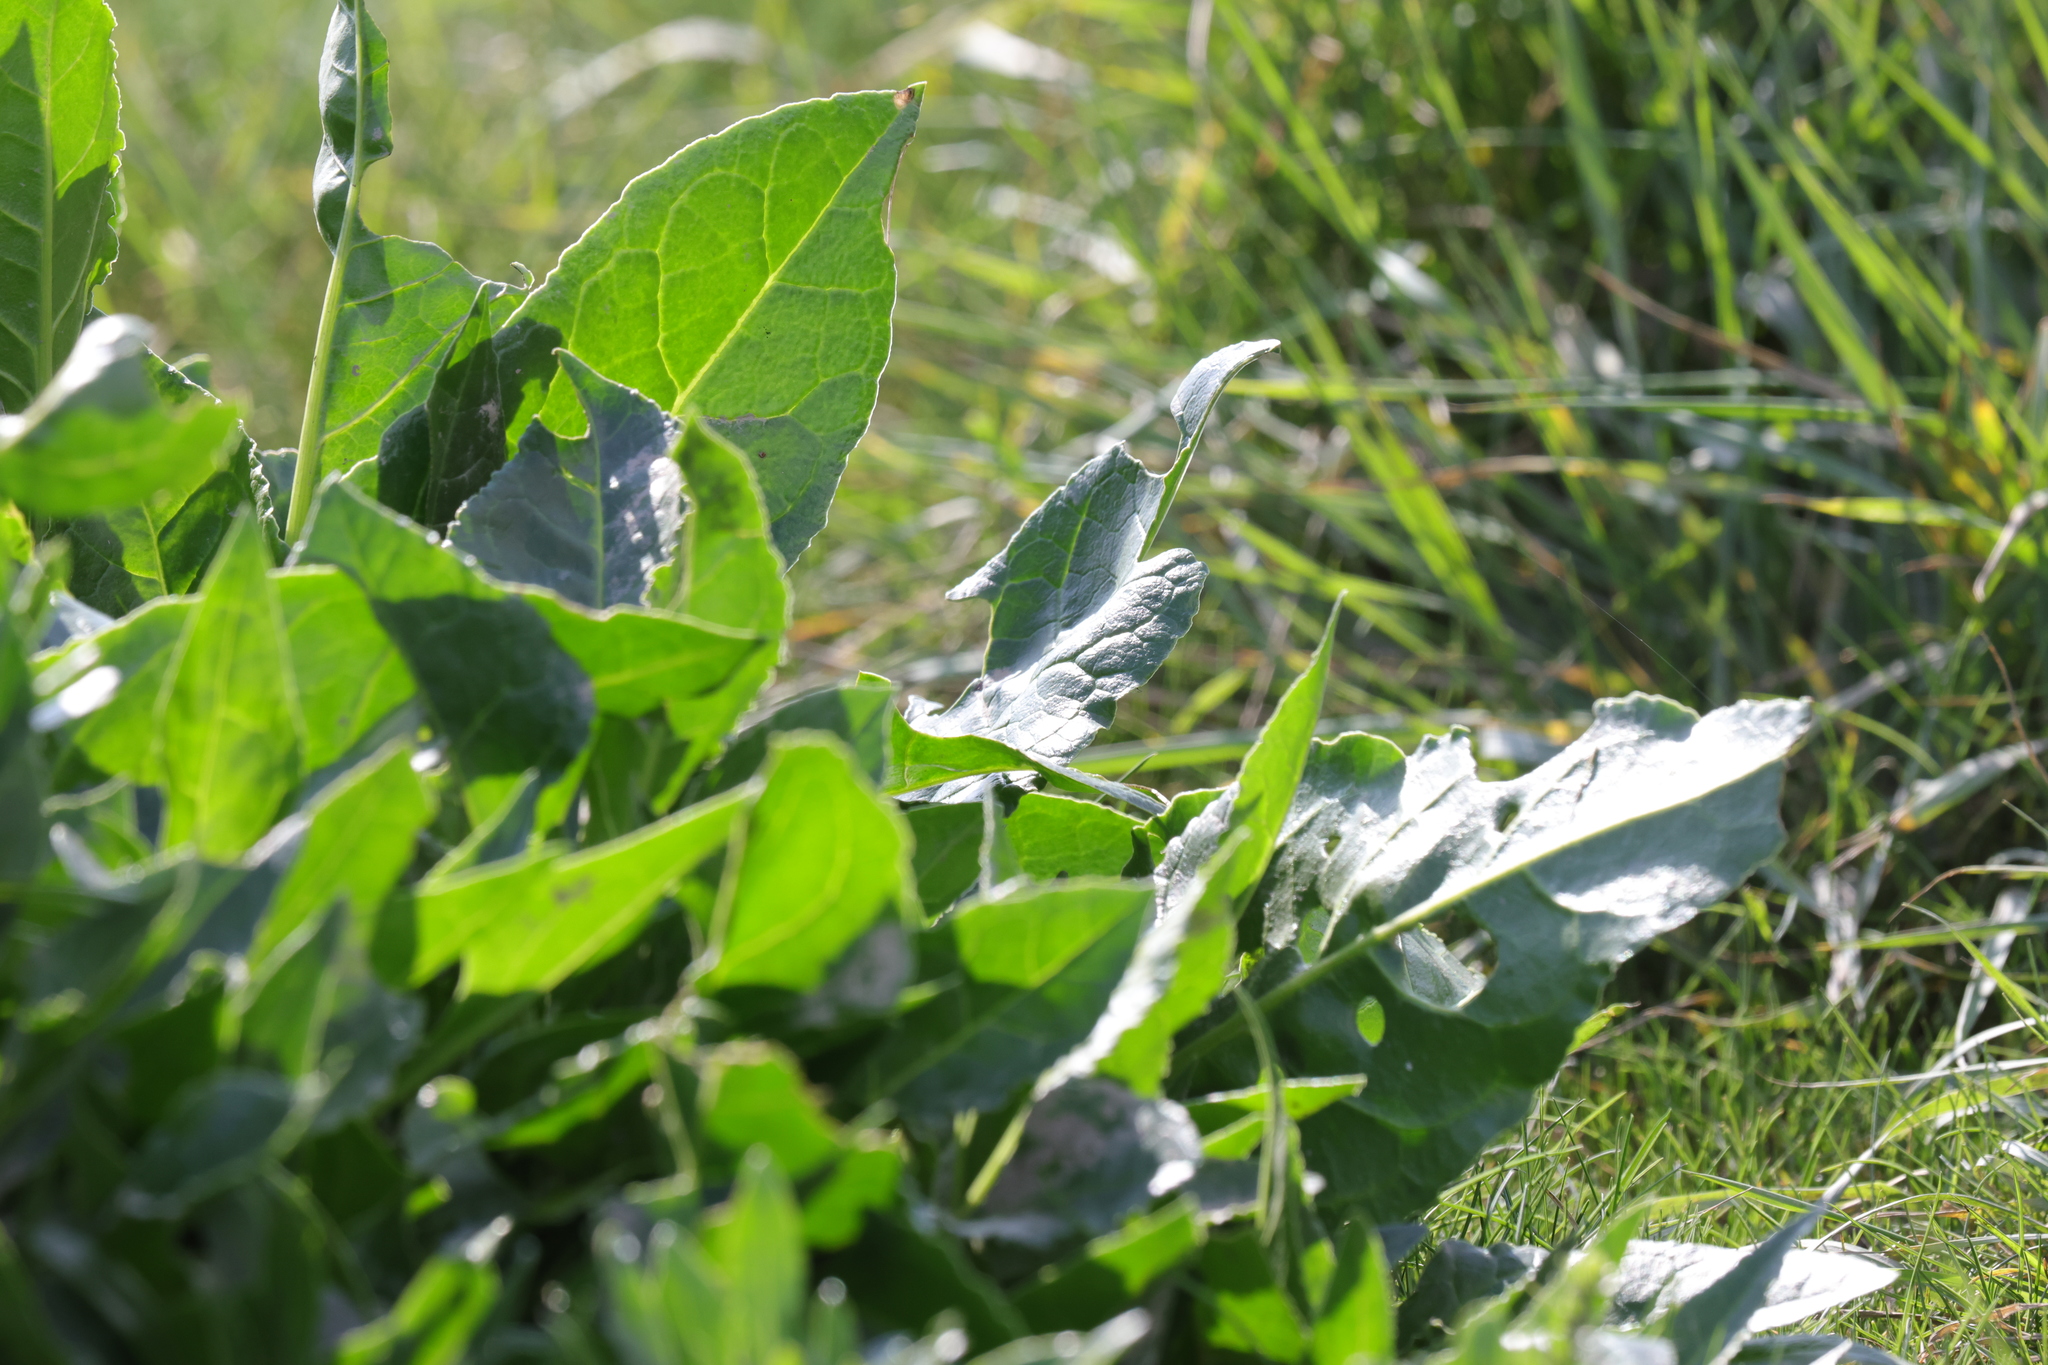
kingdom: Plantae
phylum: Tracheophyta
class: Magnoliopsida
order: Caryophyllales
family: Amaranthaceae
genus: Beta
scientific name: Beta vulgaris
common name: Beet
